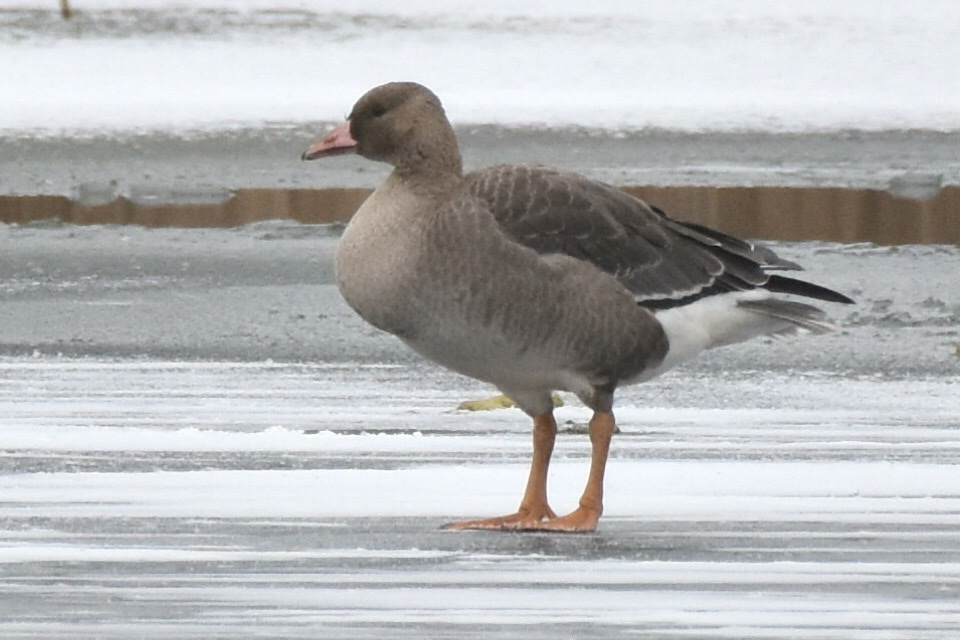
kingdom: Animalia
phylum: Chordata
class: Aves
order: Anseriformes
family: Anatidae
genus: Anser
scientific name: Anser albifrons
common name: Greater white-fronted goose
